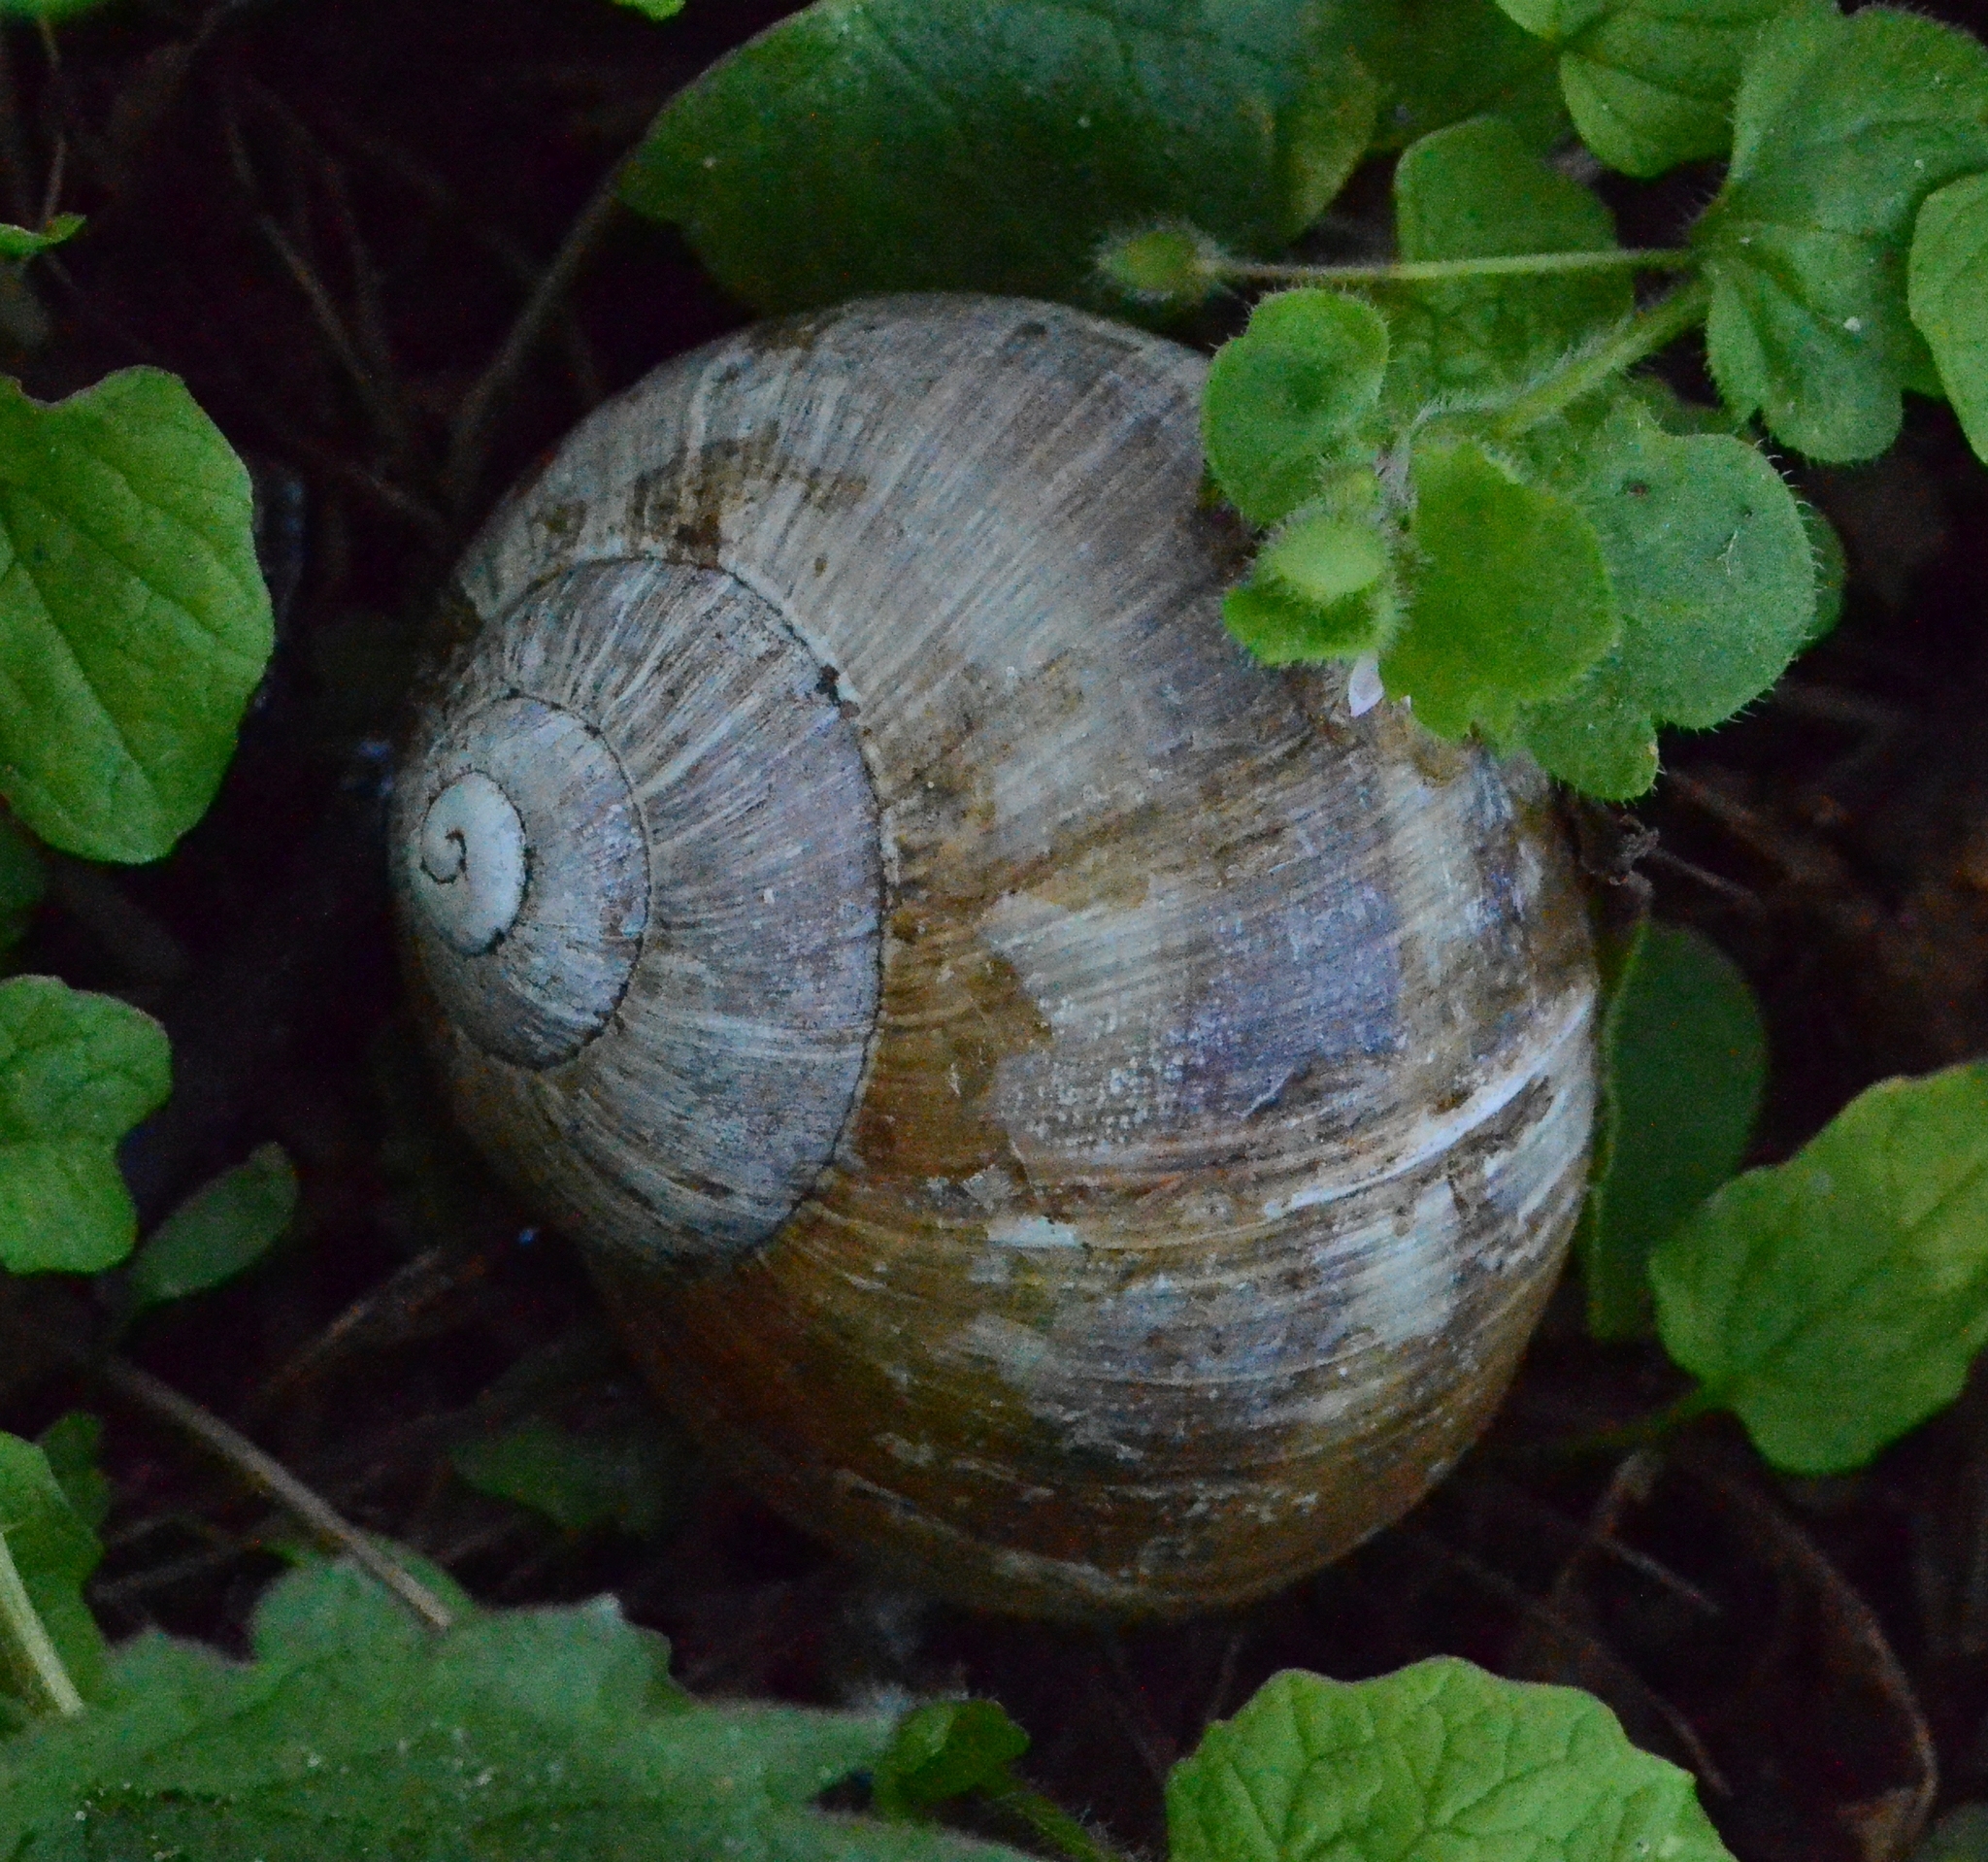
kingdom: Animalia
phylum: Mollusca
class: Gastropoda
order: Stylommatophora
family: Helicidae
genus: Helix
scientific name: Helix pomatia
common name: Roman snail
